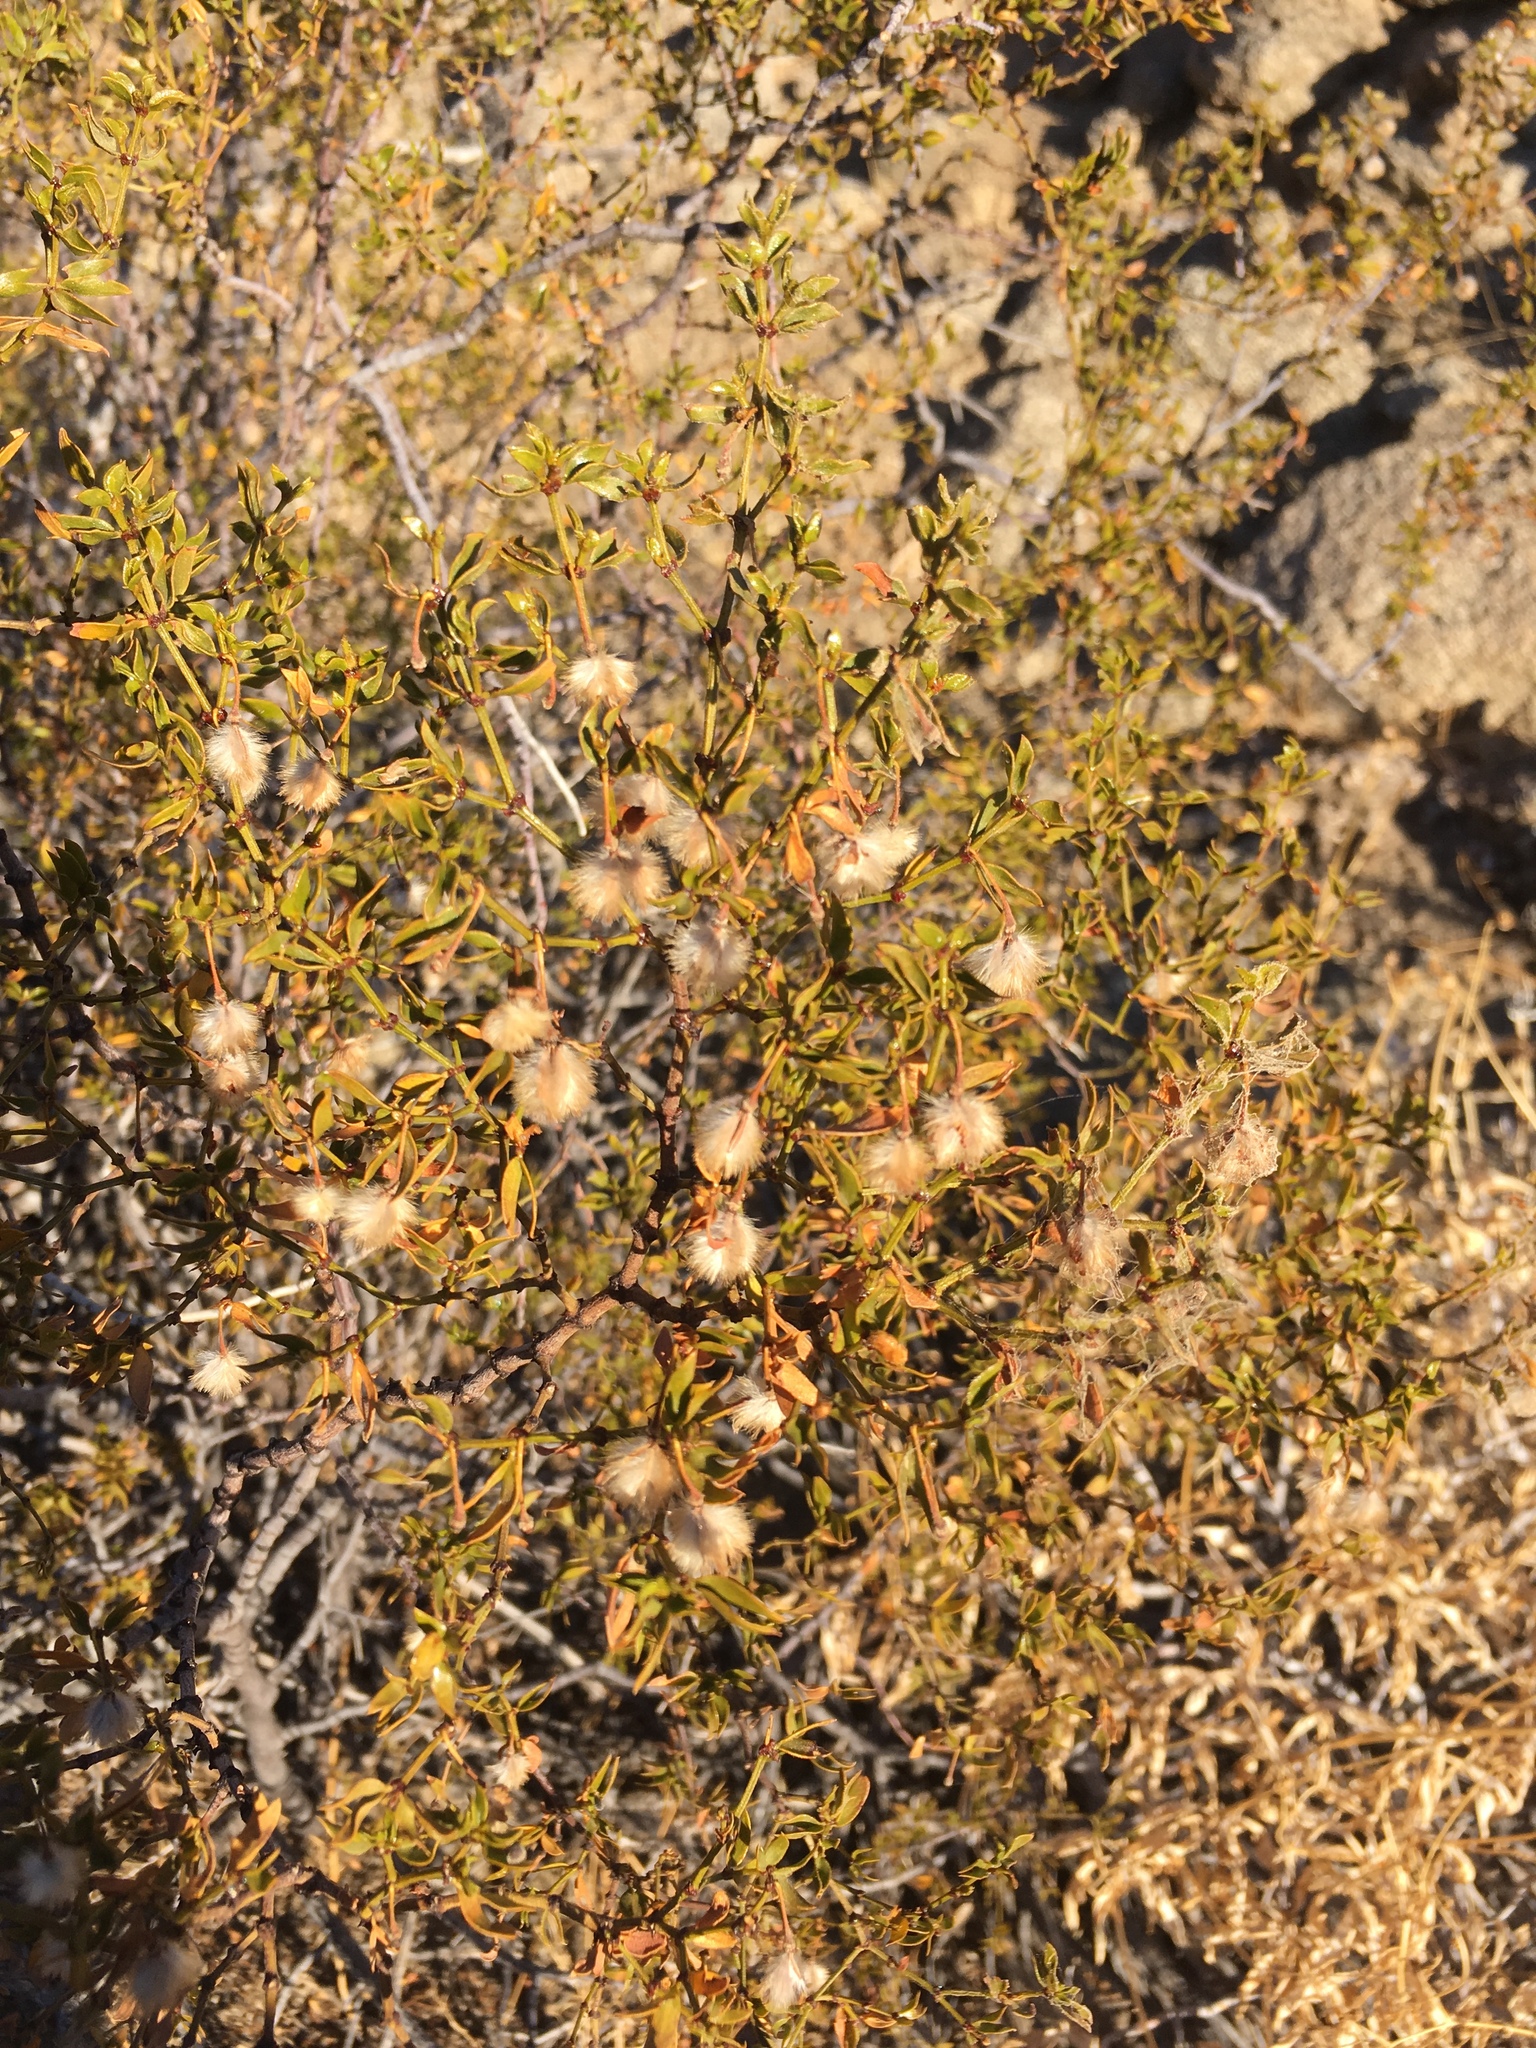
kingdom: Plantae
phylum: Tracheophyta
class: Magnoliopsida
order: Zygophyllales
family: Zygophyllaceae
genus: Larrea
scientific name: Larrea tridentata
